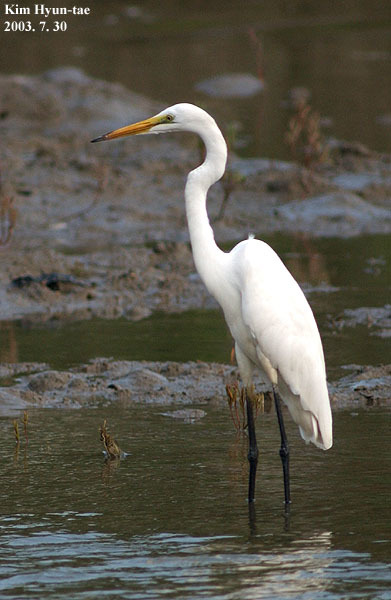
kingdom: Animalia
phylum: Chordata
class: Aves
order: Pelecaniformes
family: Ardeidae
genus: Ardea
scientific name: Ardea alba
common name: Great egret
